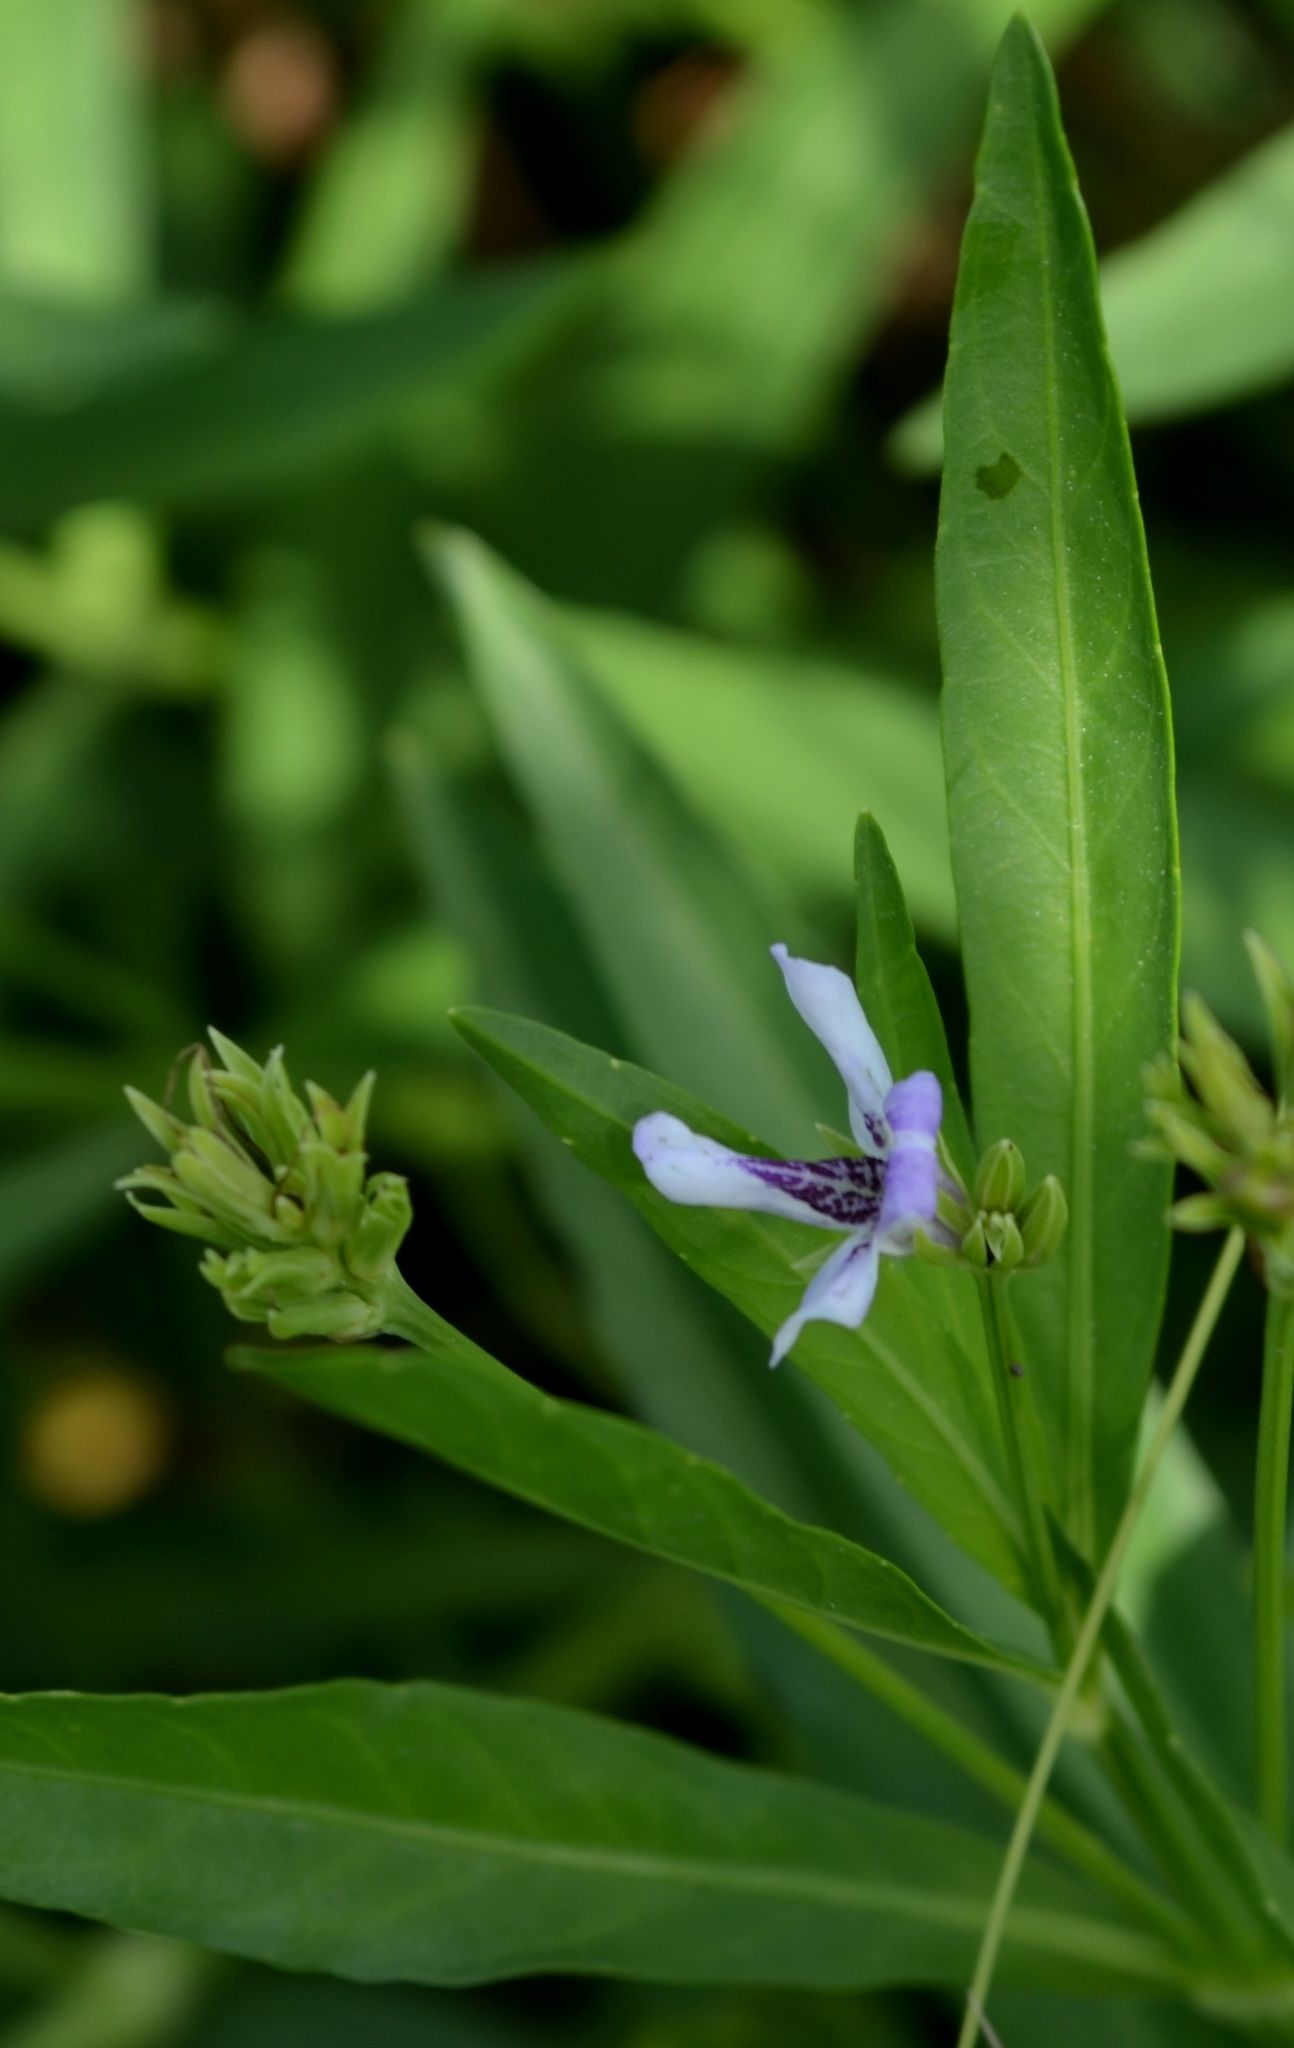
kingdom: Plantae
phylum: Tracheophyta
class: Magnoliopsida
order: Lamiales
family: Acanthaceae
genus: Dianthera
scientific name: Dianthera americana
